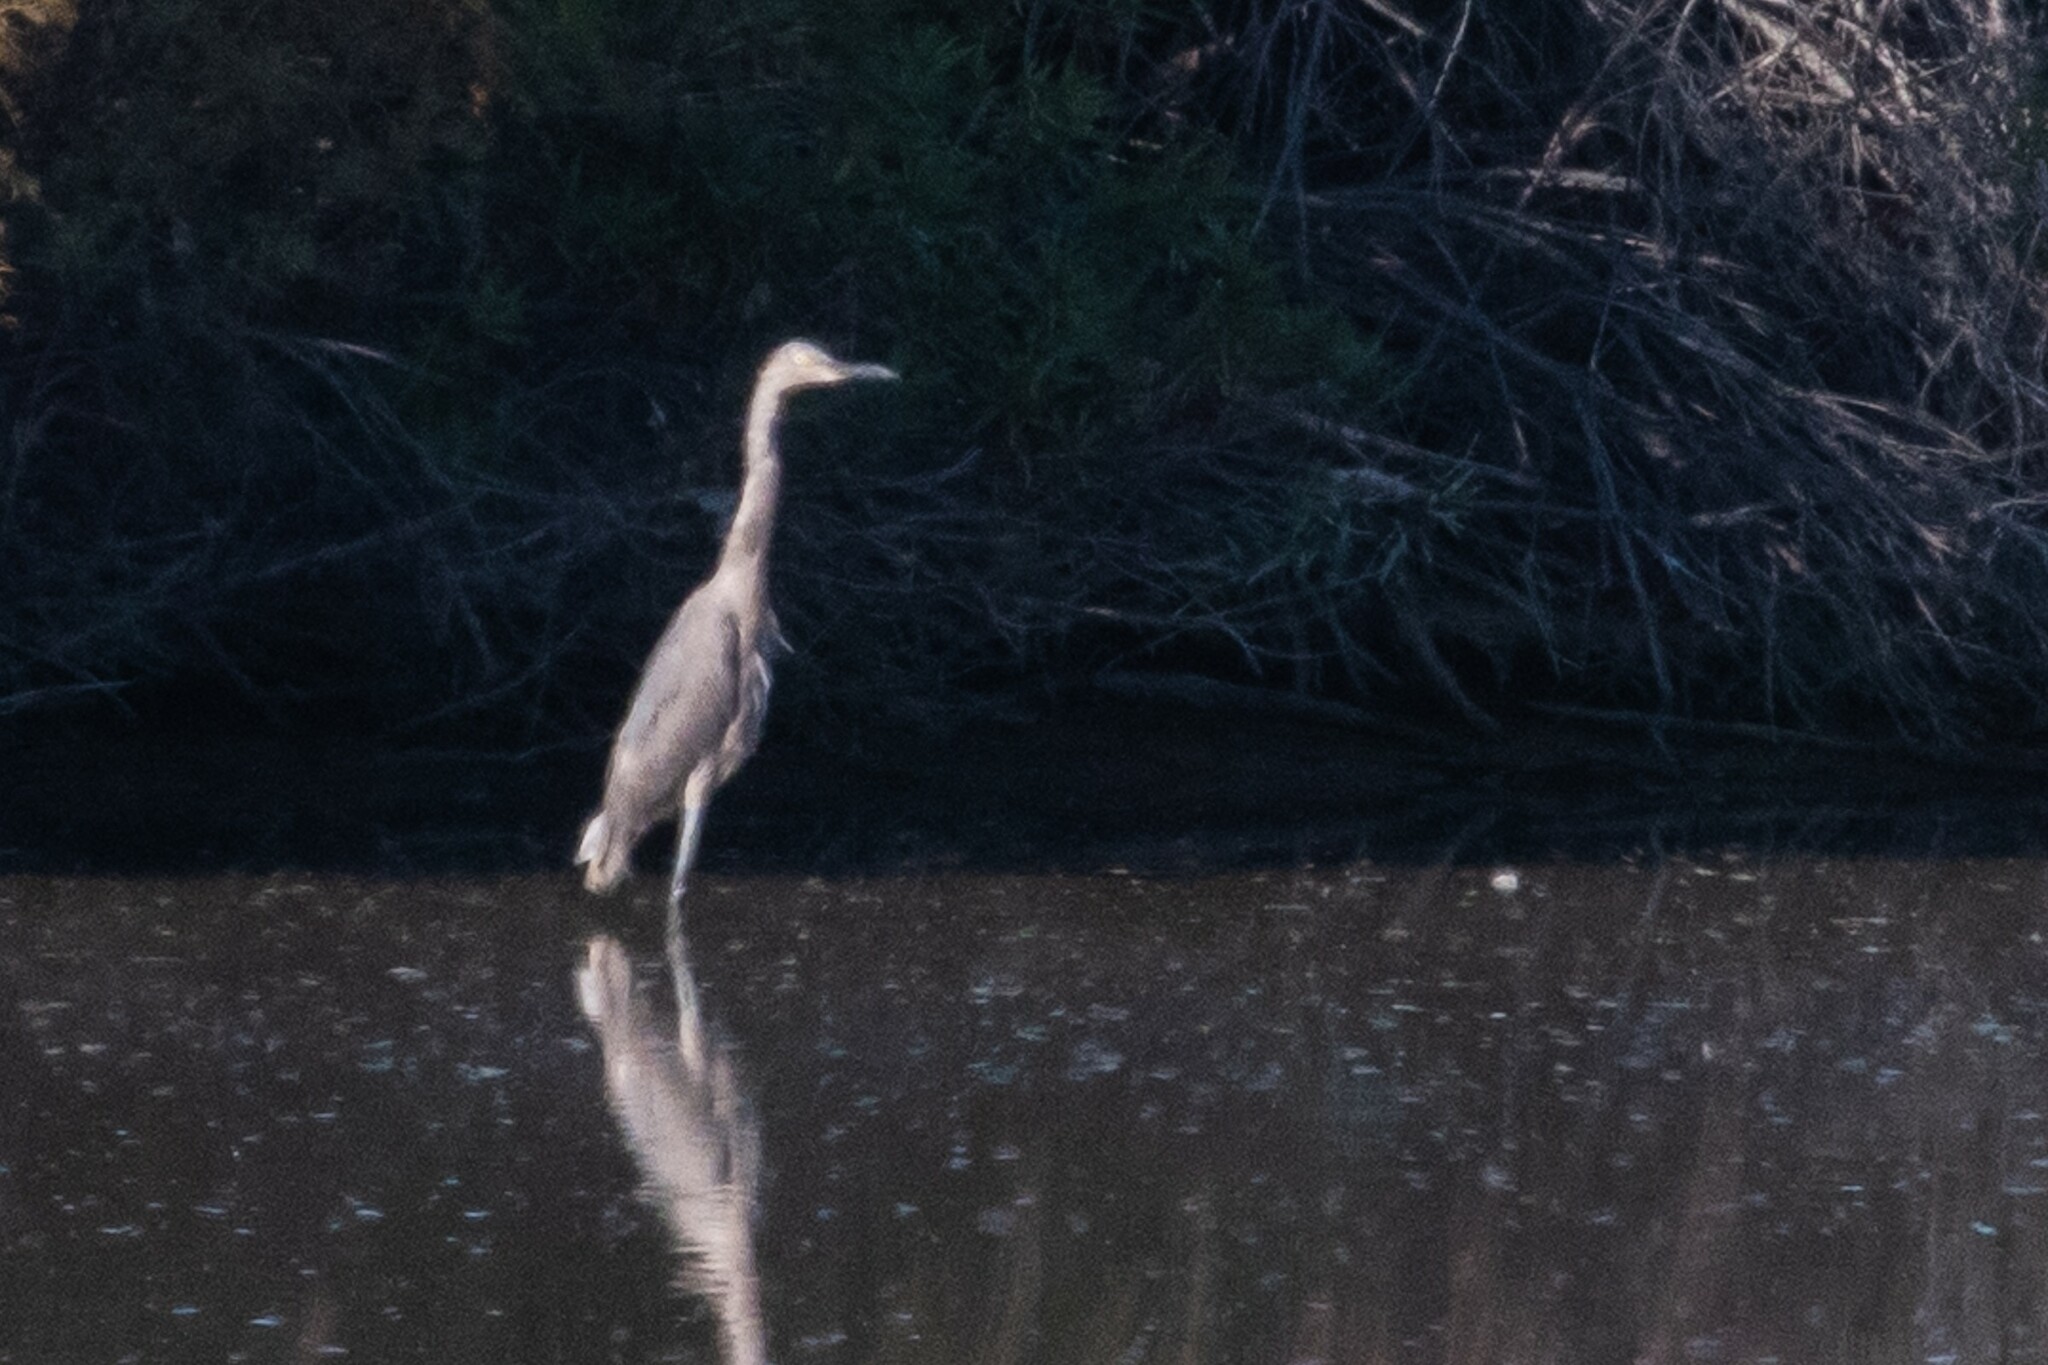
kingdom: Animalia
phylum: Chordata
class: Aves
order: Pelecaniformes
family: Ardeidae
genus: Egretta
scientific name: Egretta rufescens
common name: Reddish egret
